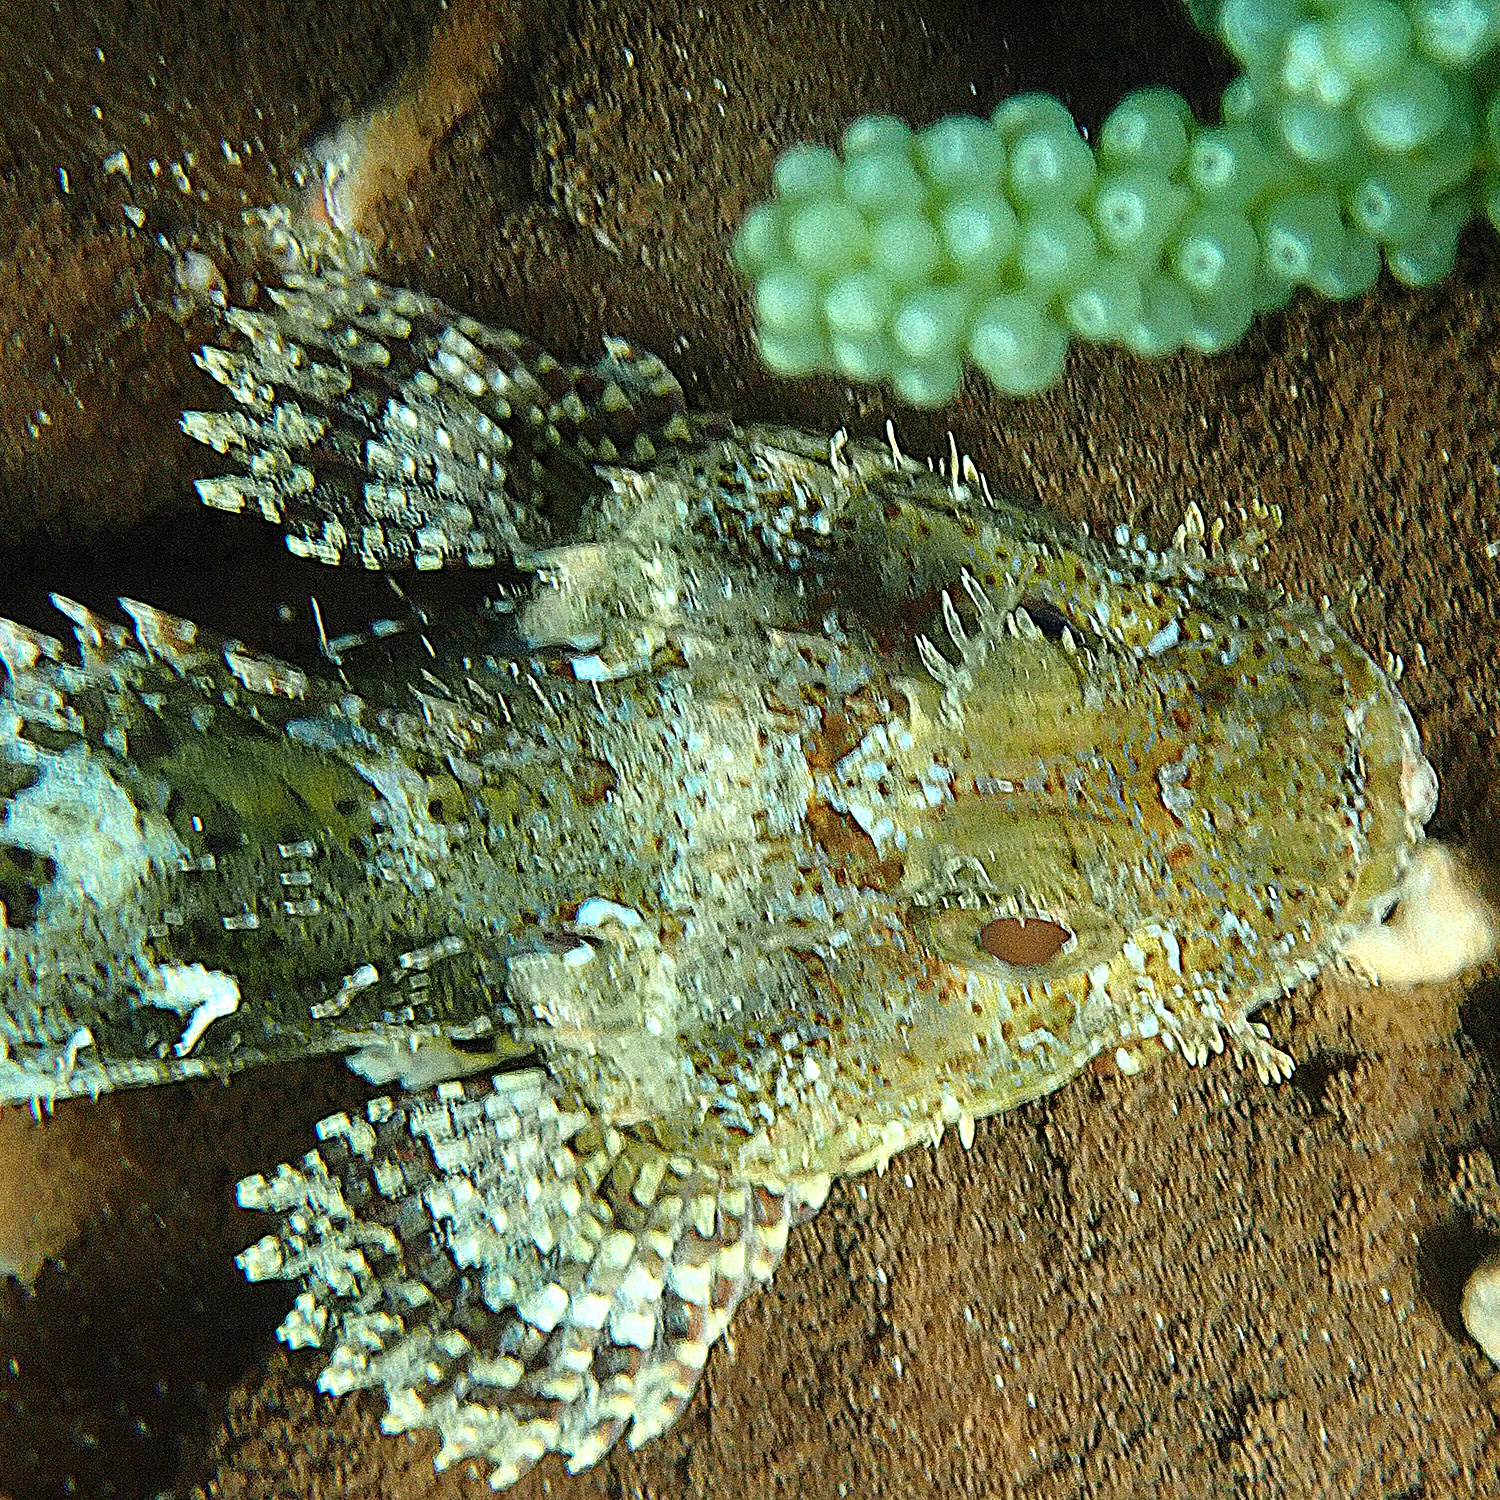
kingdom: Animalia
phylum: Chordata
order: Scorpaeniformes
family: Scorpaenidae
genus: Scorpaena
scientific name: Scorpaena cardinalis
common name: Cardinal scorpionfish
